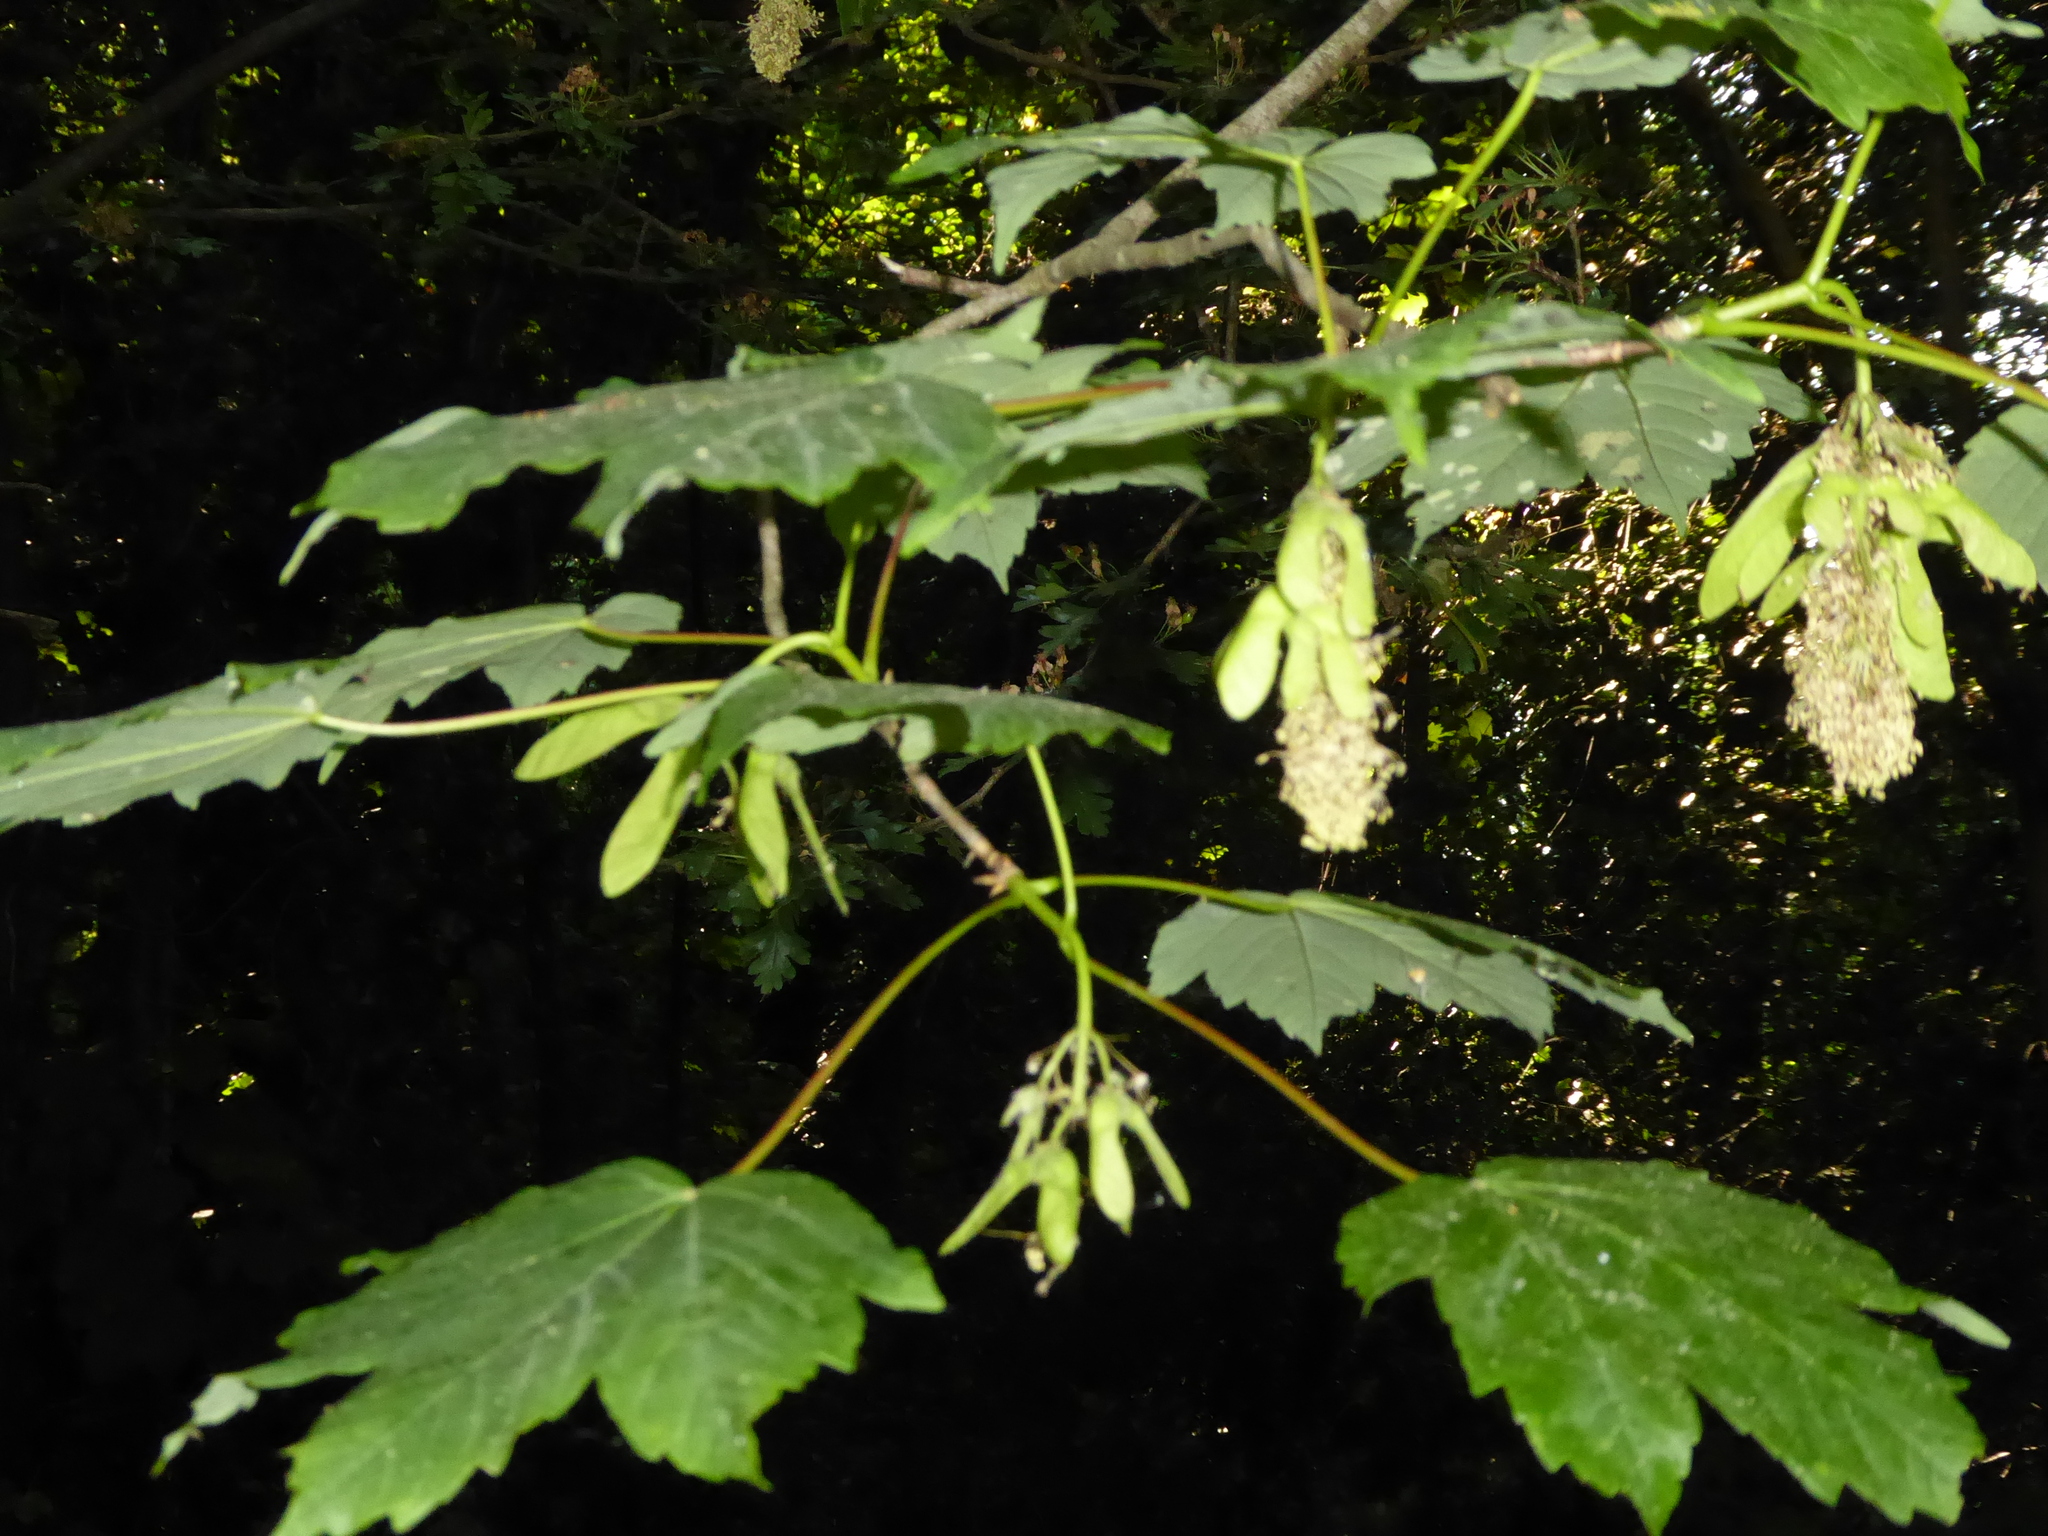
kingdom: Plantae
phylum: Tracheophyta
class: Magnoliopsida
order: Sapindales
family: Sapindaceae
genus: Acer
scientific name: Acer pseudoplatanus
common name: Sycamore
